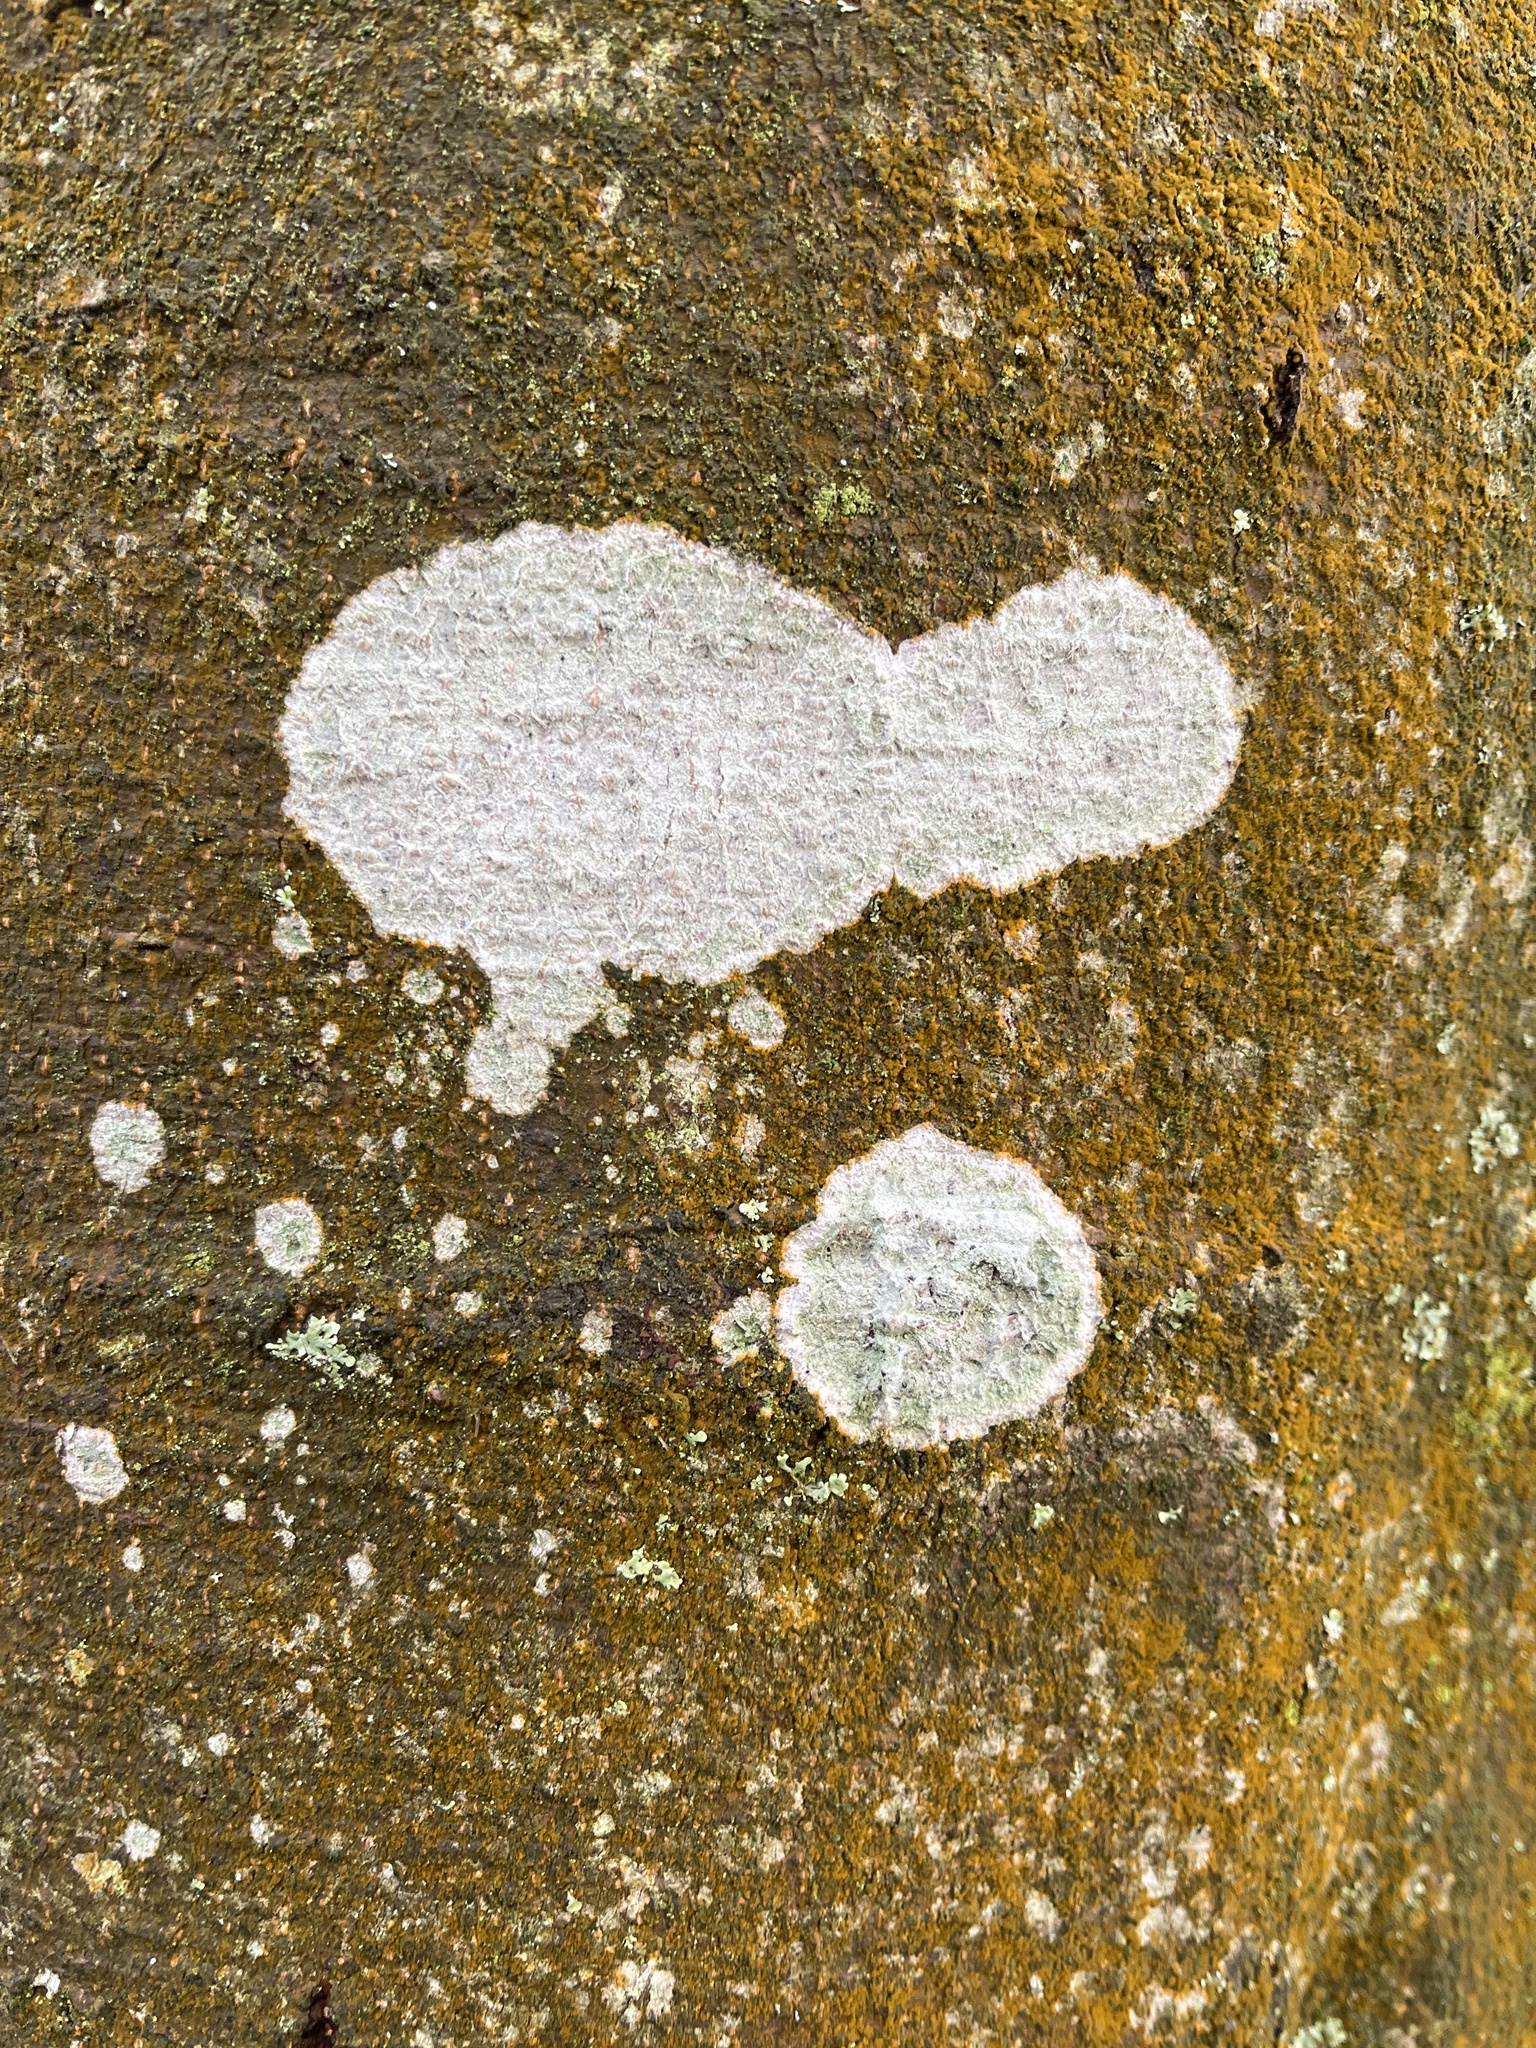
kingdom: Fungi
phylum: Ascomycota
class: Lecanoromycetes
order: Ostropales
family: Phlyctidaceae
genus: Phlyctis
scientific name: Phlyctis argena
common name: Whitewash lichen
